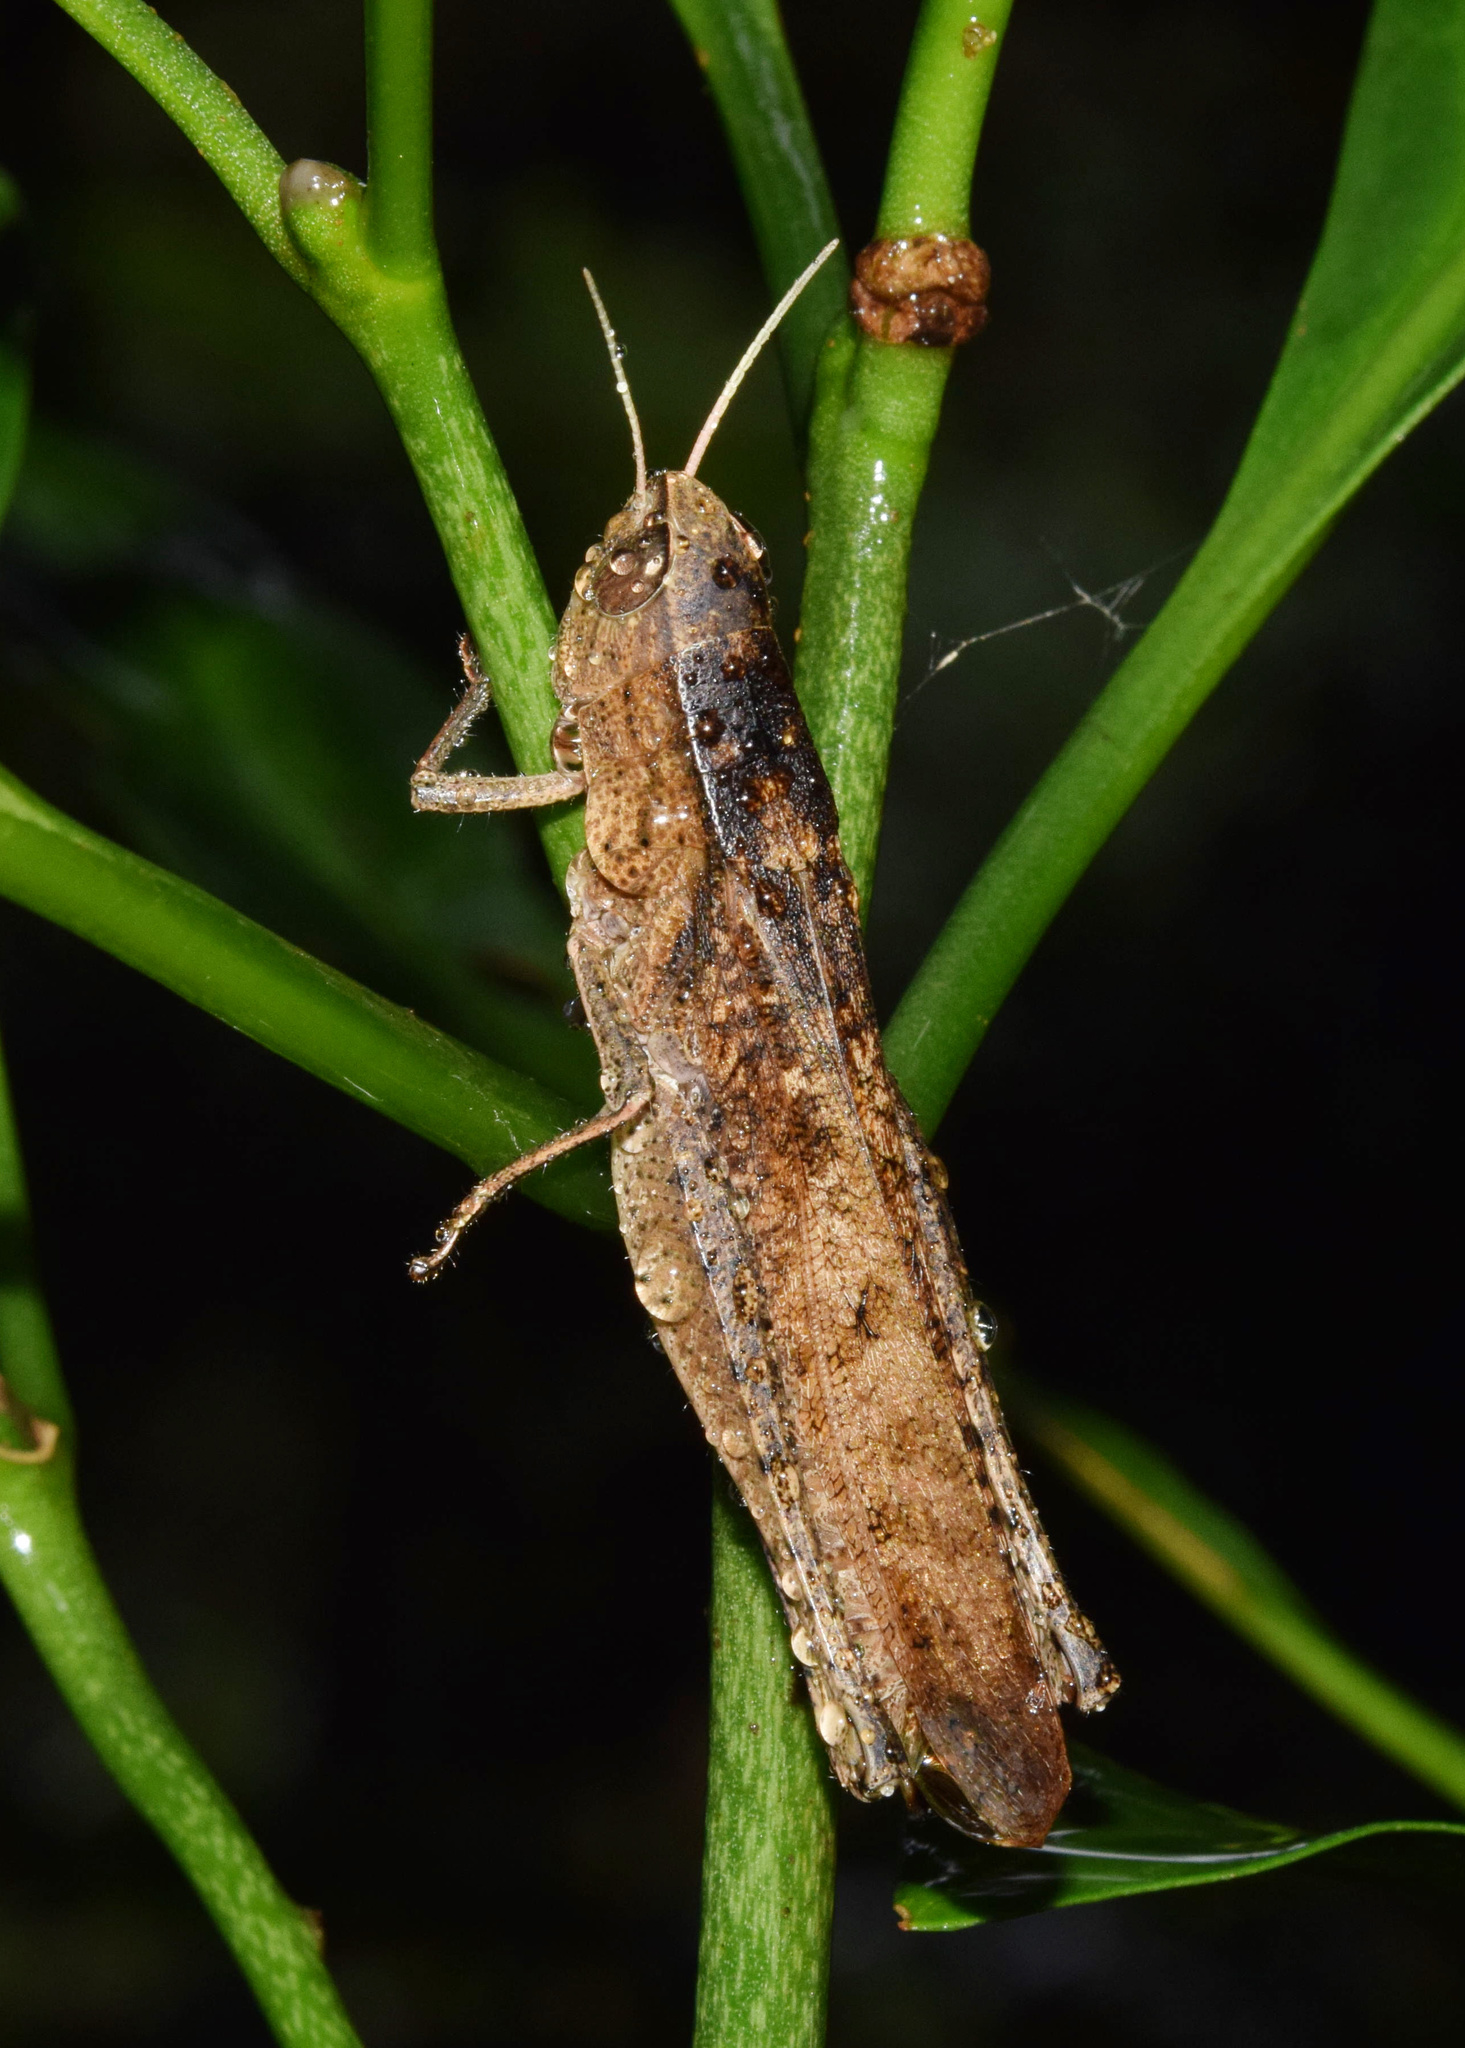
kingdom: Animalia
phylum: Arthropoda
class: Insecta
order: Orthoptera
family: Acrididae
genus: Oraistes
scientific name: Oraistes luridus
